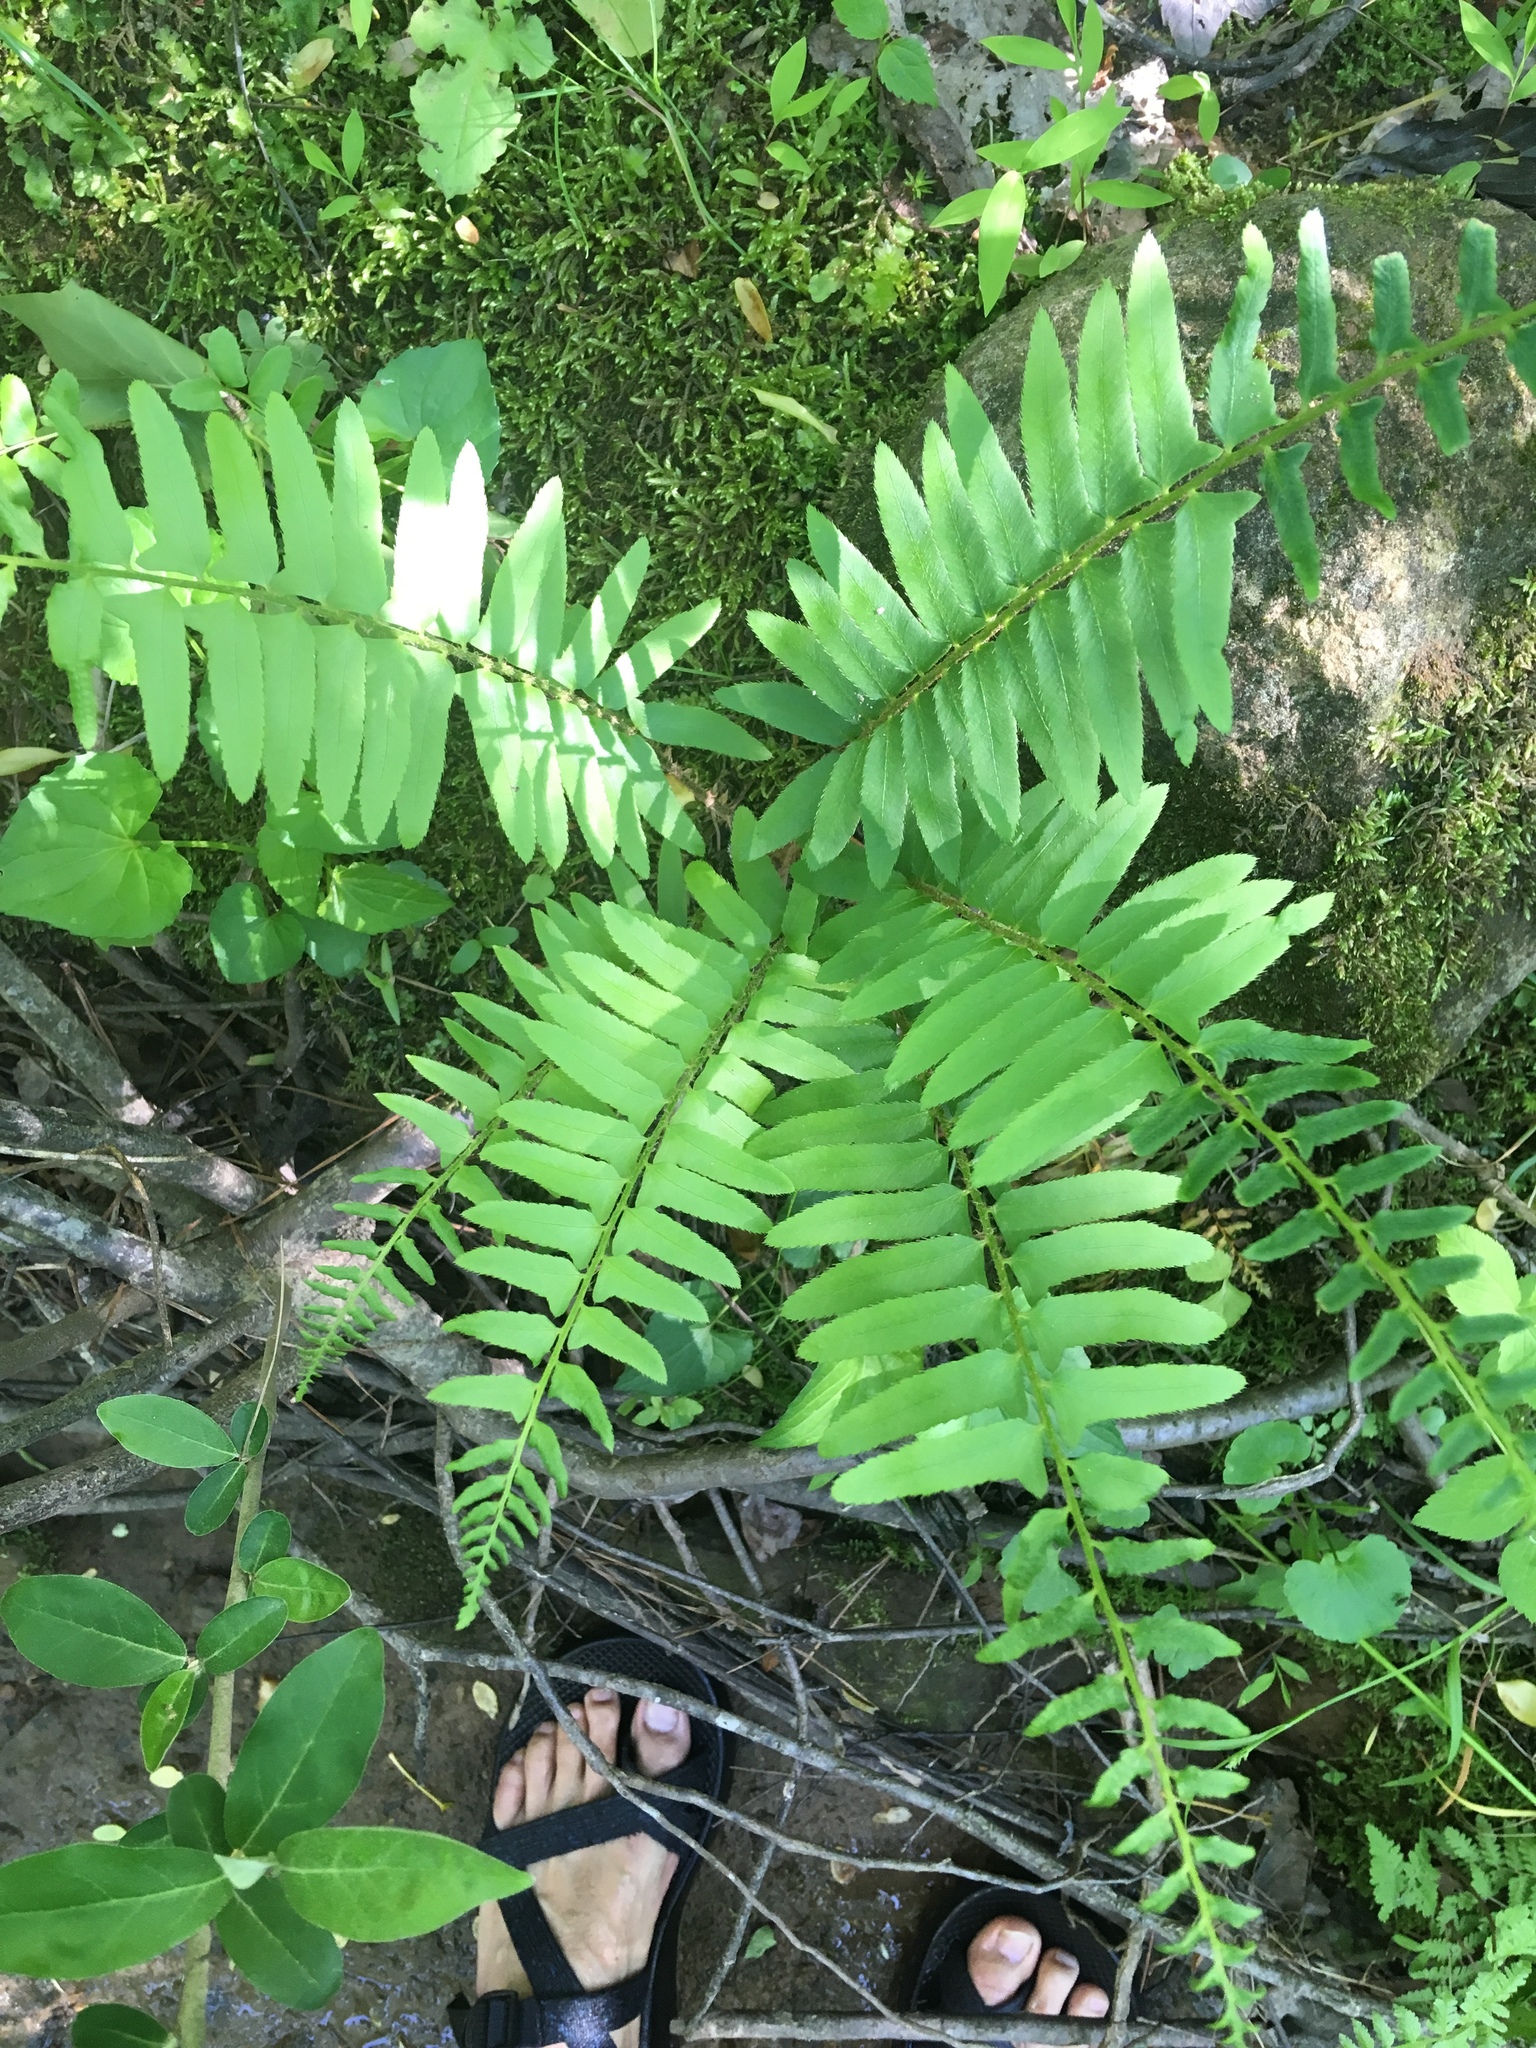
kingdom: Plantae
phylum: Tracheophyta
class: Polypodiopsida
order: Polypodiales
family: Dryopteridaceae
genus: Polystichum
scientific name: Polystichum acrostichoides
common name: Christmas fern
